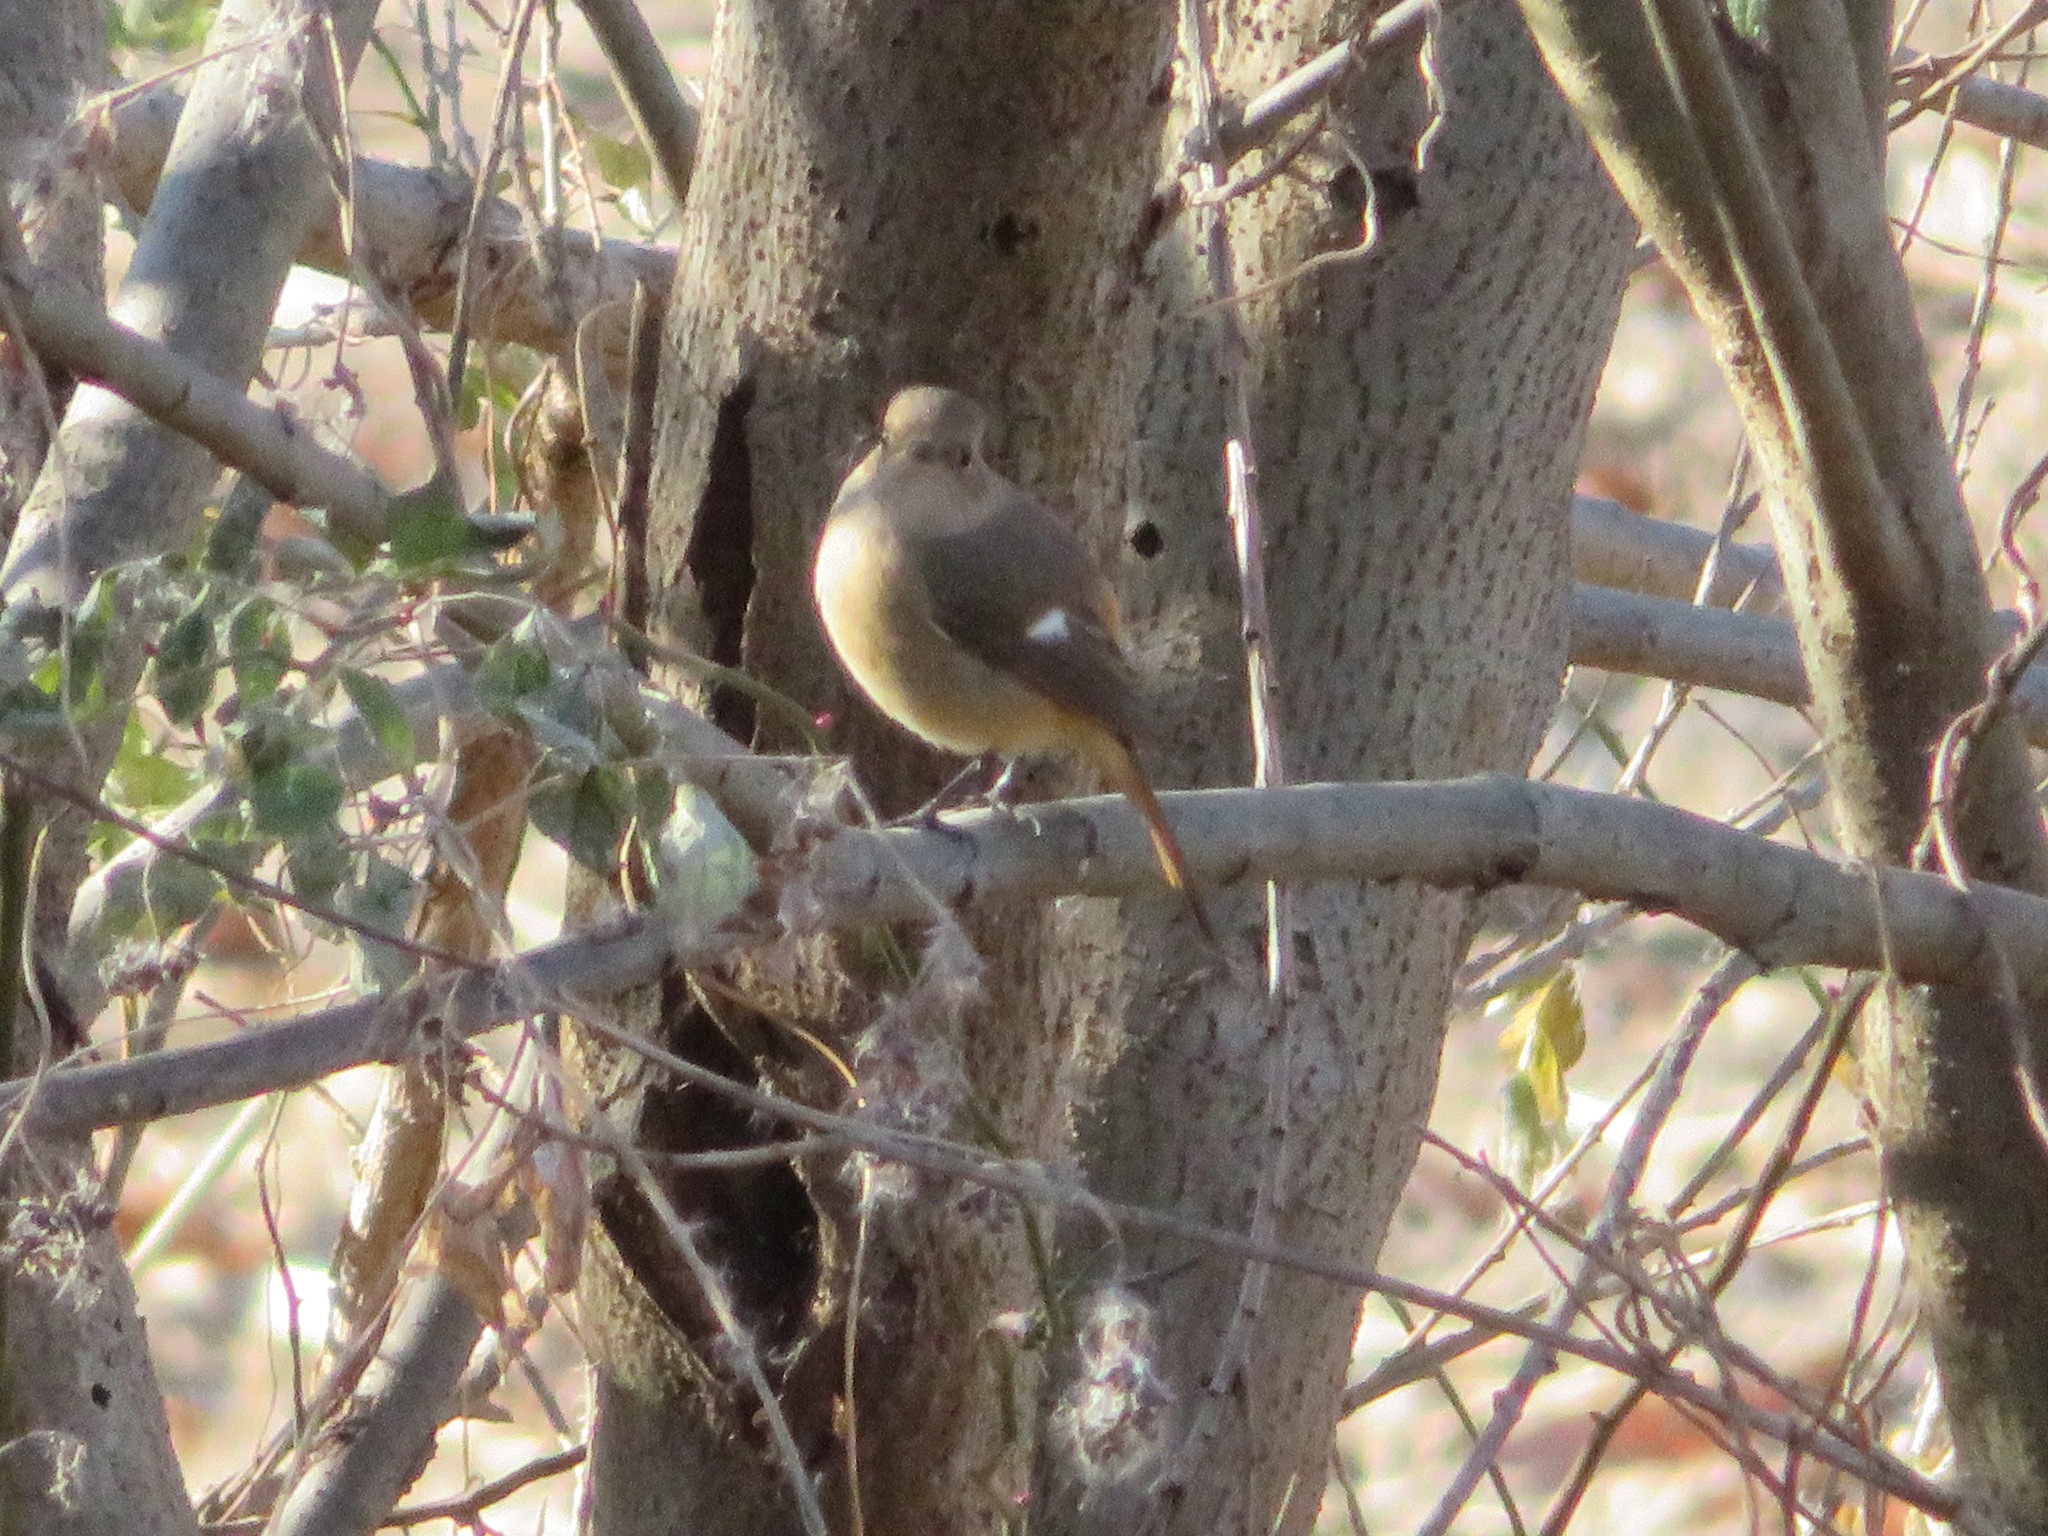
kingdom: Animalia
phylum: Chordata
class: Aves
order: Passeriformes
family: Muscicapidae
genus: Phoenicurus
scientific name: Phoenicurus auroreus
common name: Daurian redstart
